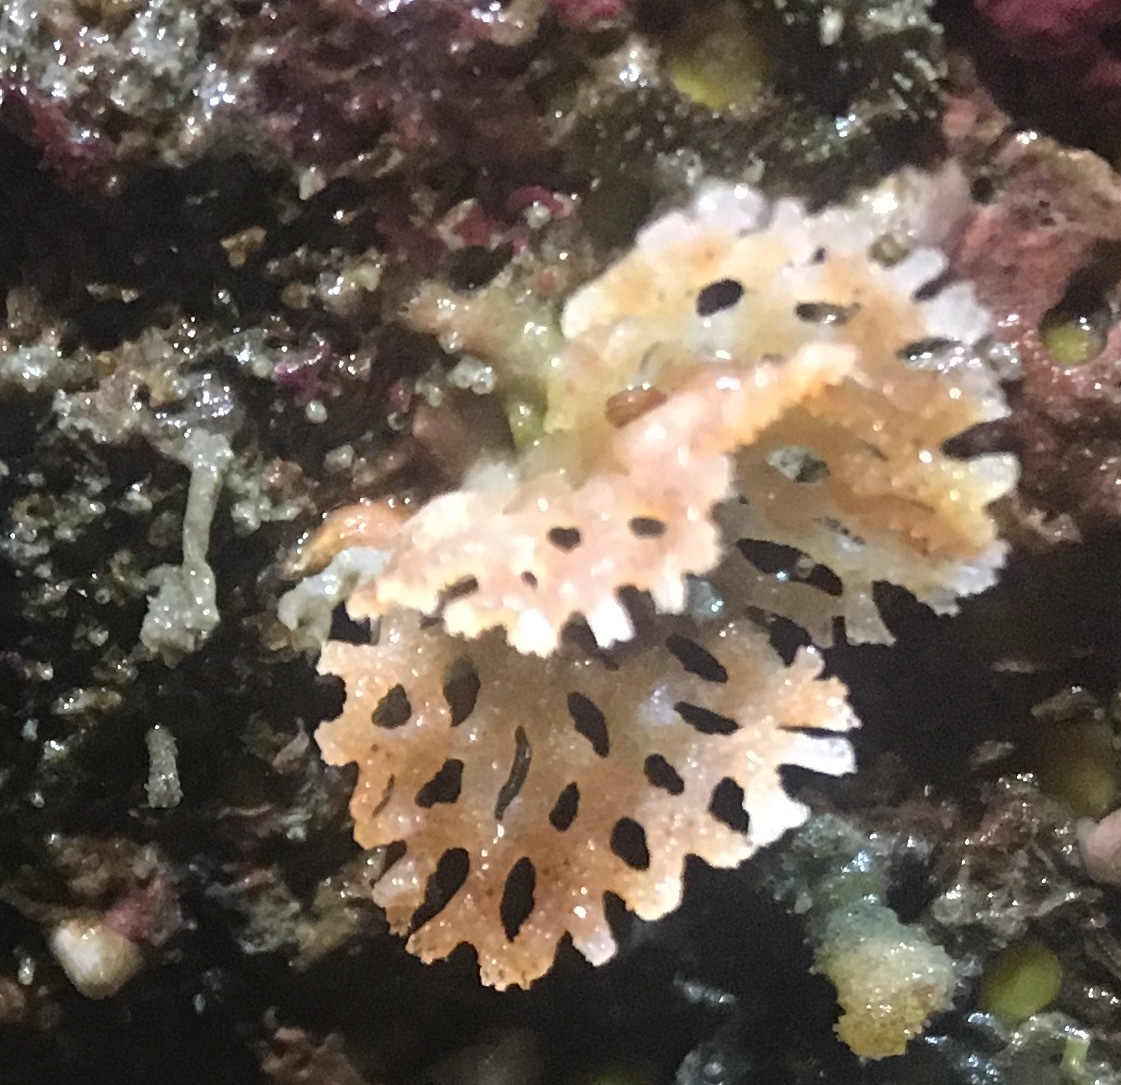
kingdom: Animalia
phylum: Bryozoa
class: Gymnolaemata
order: Cheilostomatida
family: Phidoloporidae
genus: Phidolopora
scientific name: Phidolopora pacifica
